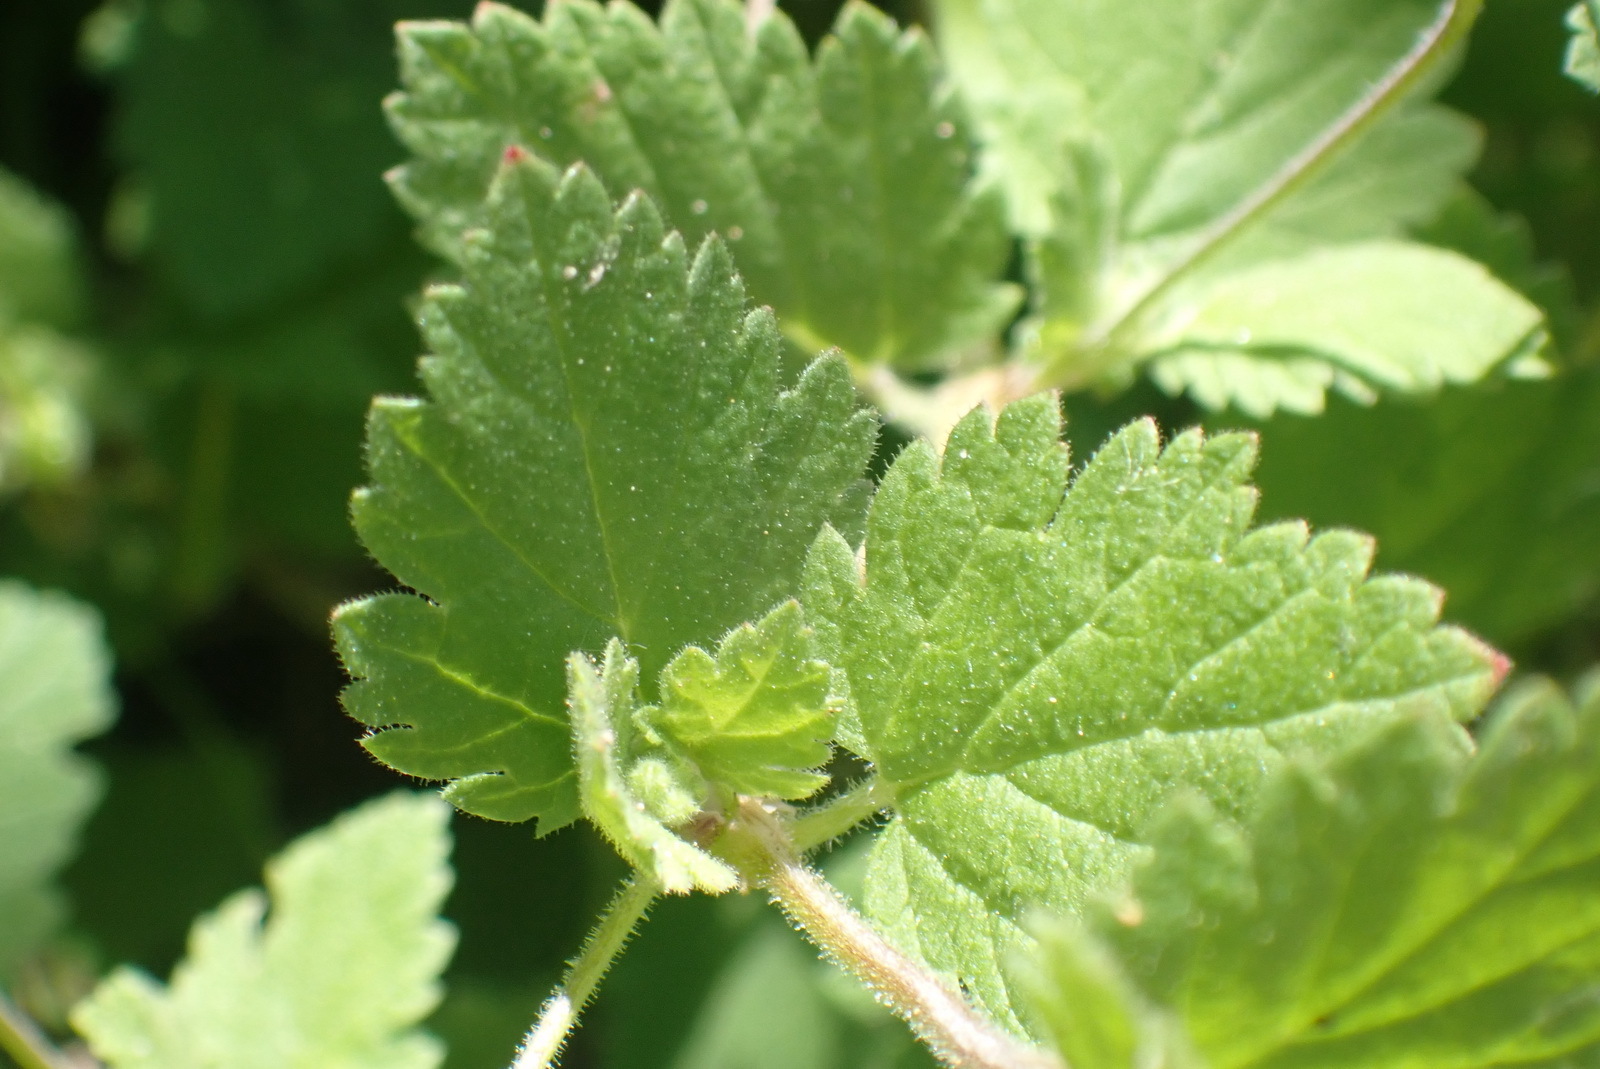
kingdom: Plantae
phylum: Tracheophyta
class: Magnoliopsida
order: Geraniales
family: Geraniaceae
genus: Erodium
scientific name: Erodium malacoides
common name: Soft stork's-bill
